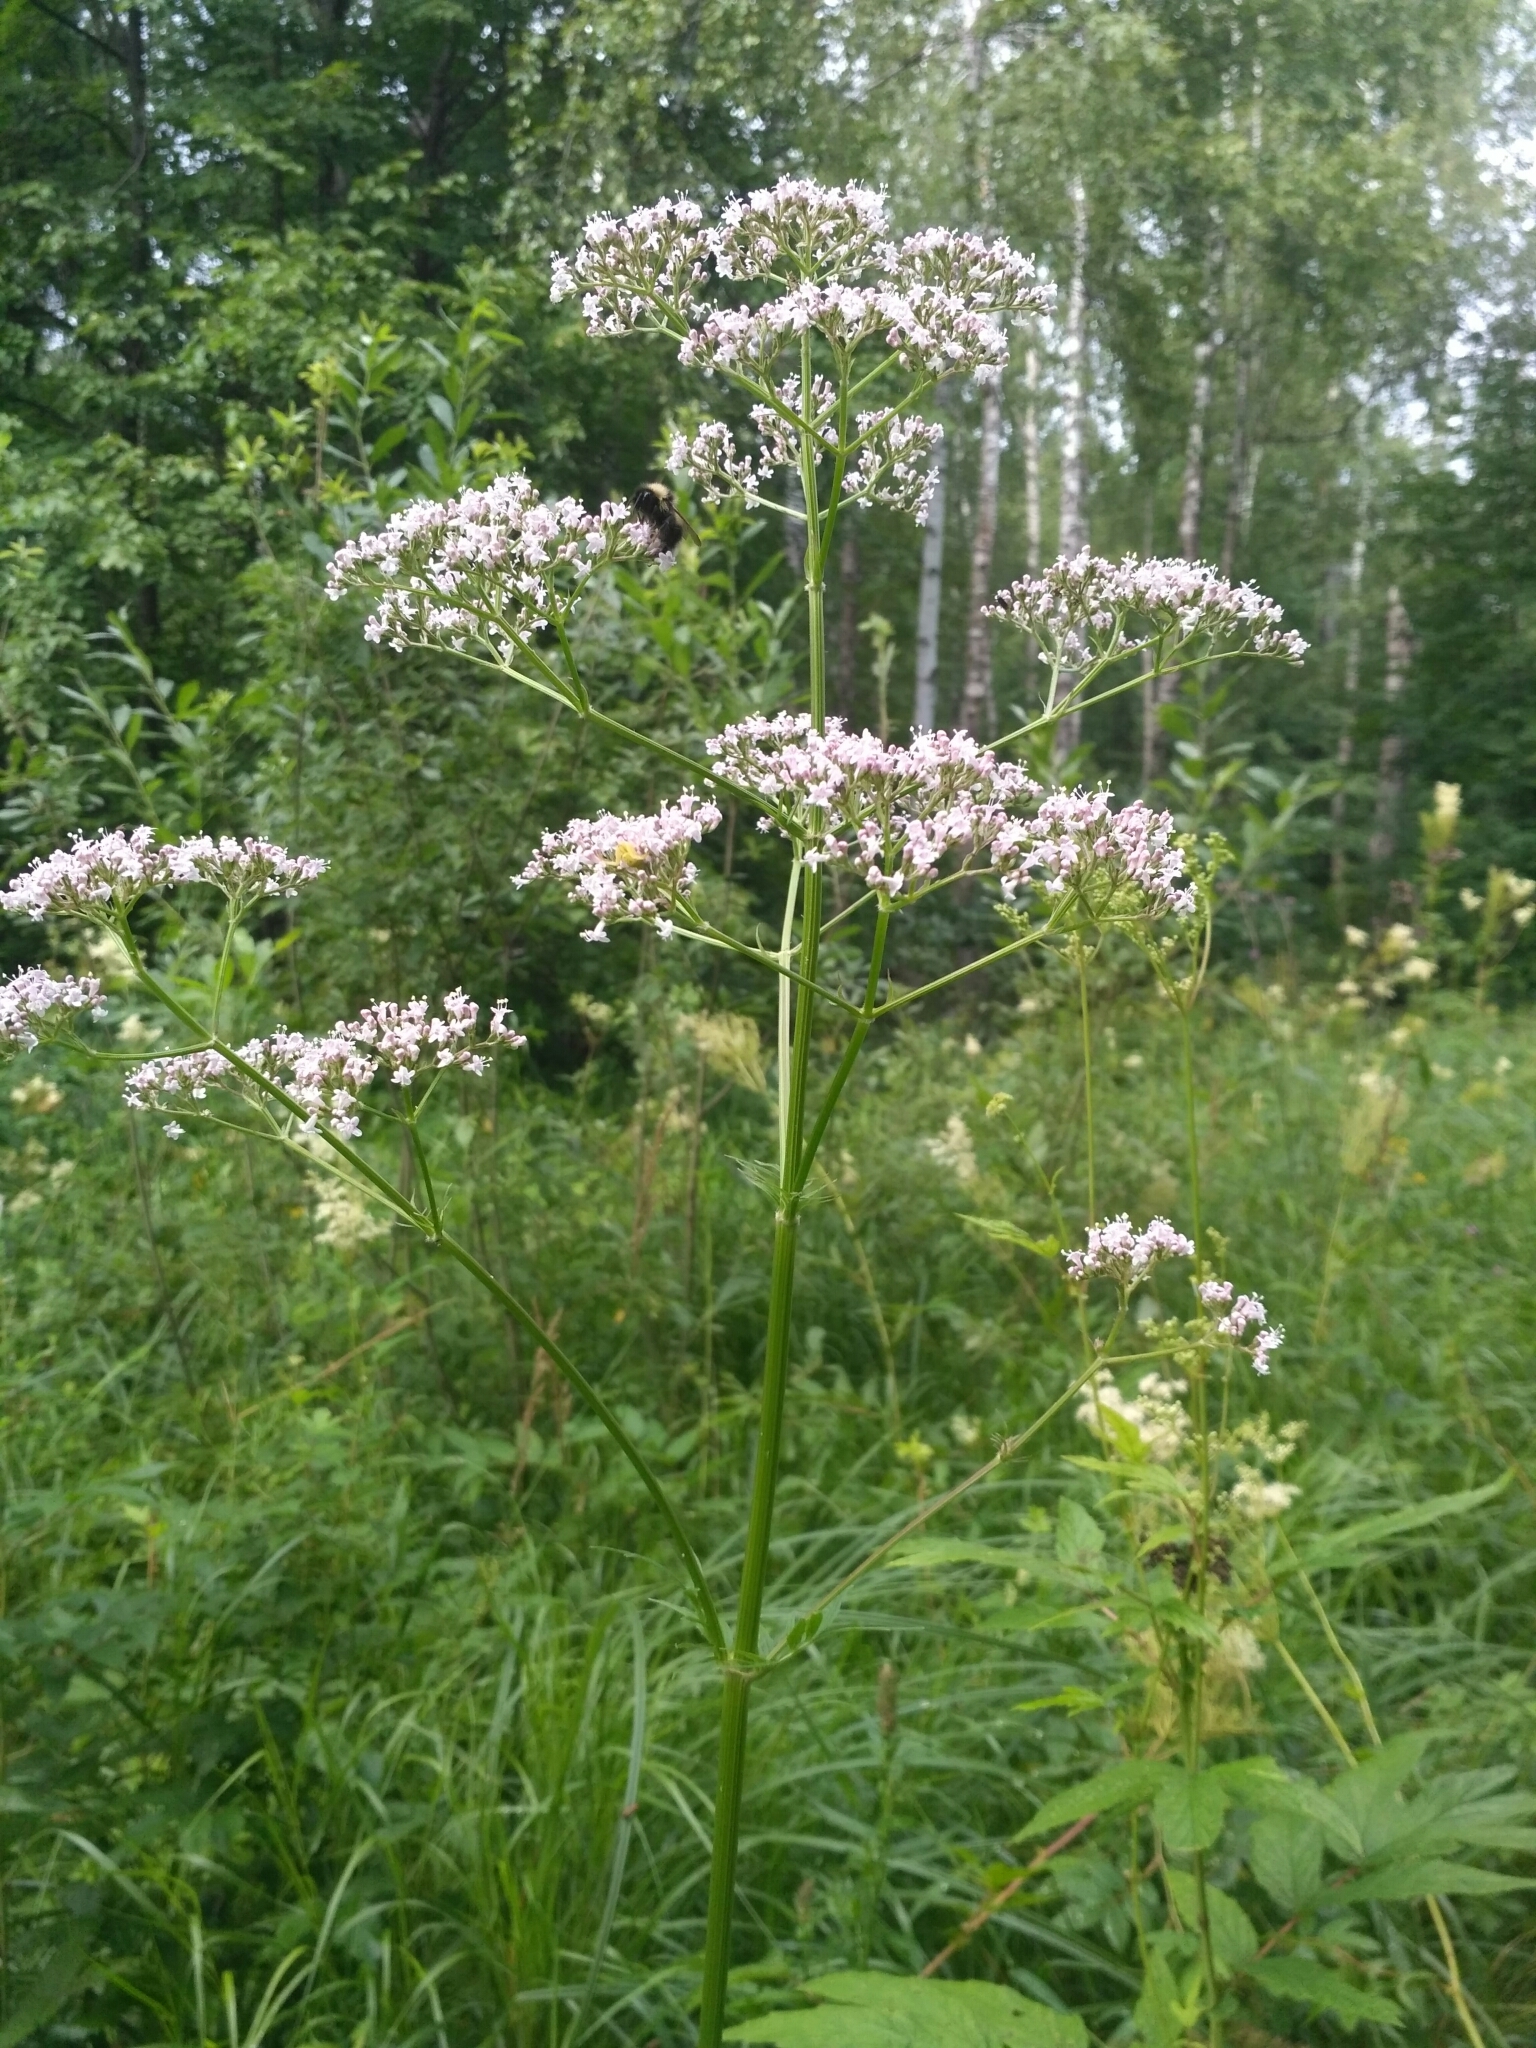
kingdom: Plantae
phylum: Tracheophyta
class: Magnoliopsida
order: Dipsacales
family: Caprifoliaceae
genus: Valeriana
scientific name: Valeriana officinalis
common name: Common valerian
